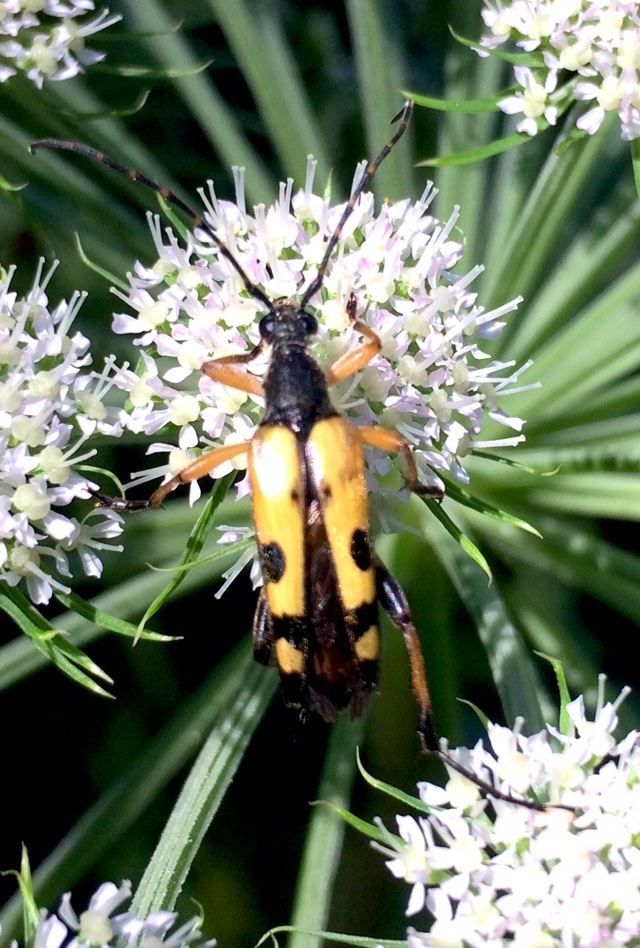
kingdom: Animalia
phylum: Arthropoda
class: Insecta
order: Coleoptera
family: Cerambycidae
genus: Rutpela
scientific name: Rutpela maculata
